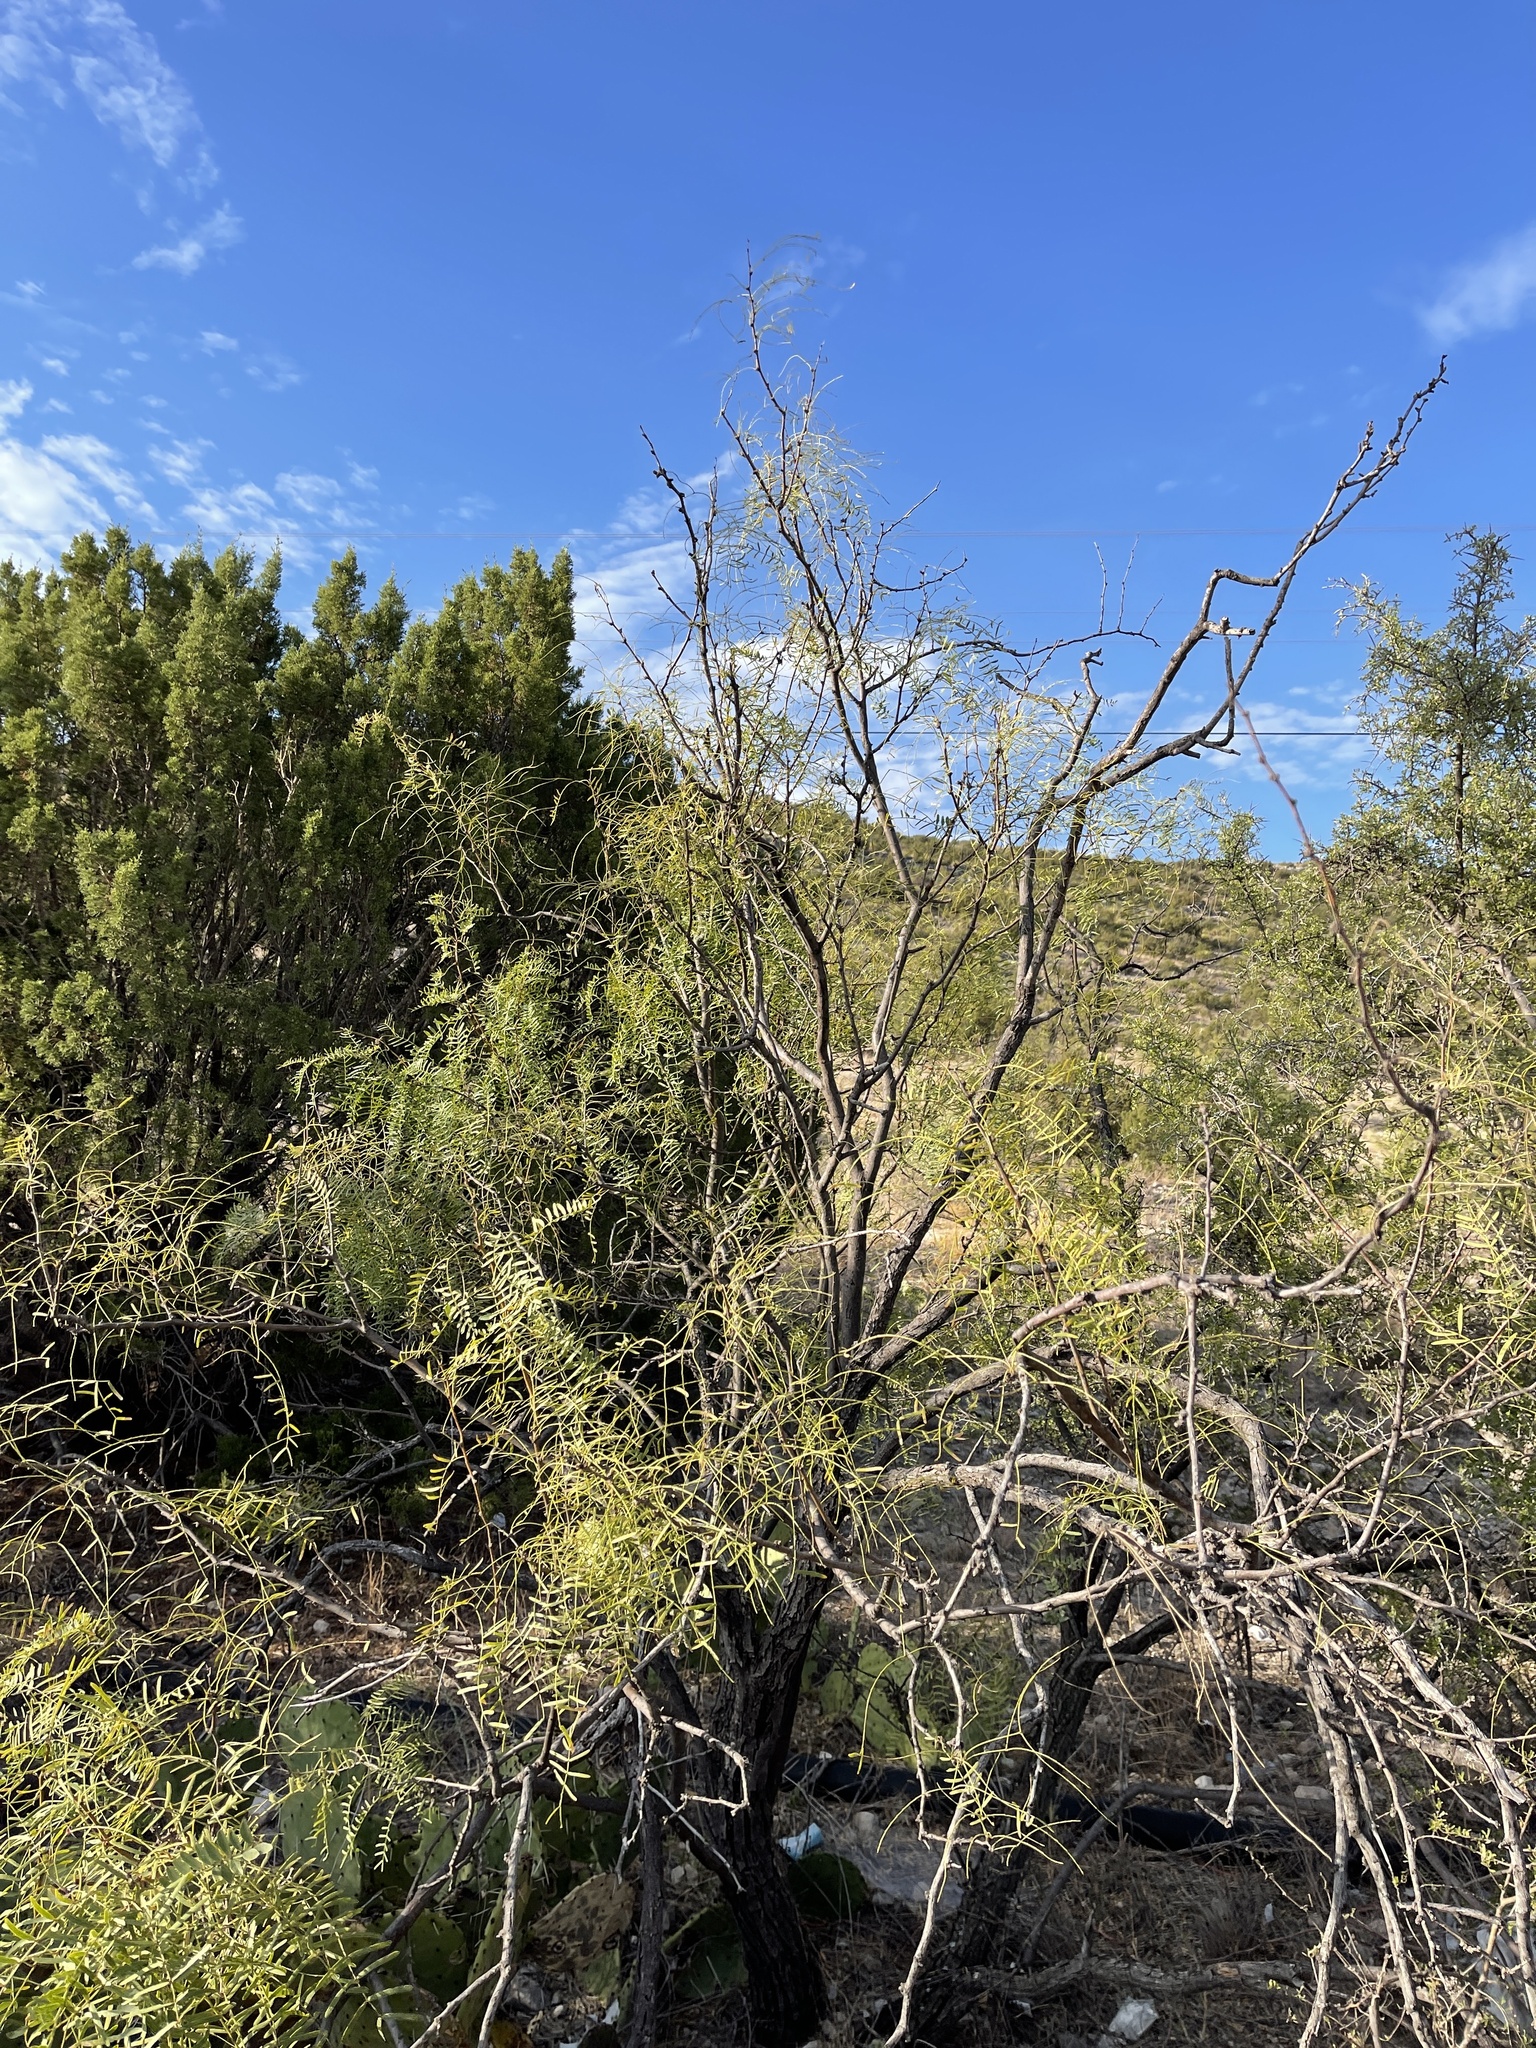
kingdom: Plantae
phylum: Tracheophyta
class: Magnoliopsida
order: Fabales
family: Fabaceae
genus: Prosopis
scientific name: Prosopis glandulosa
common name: Honey mesquite
